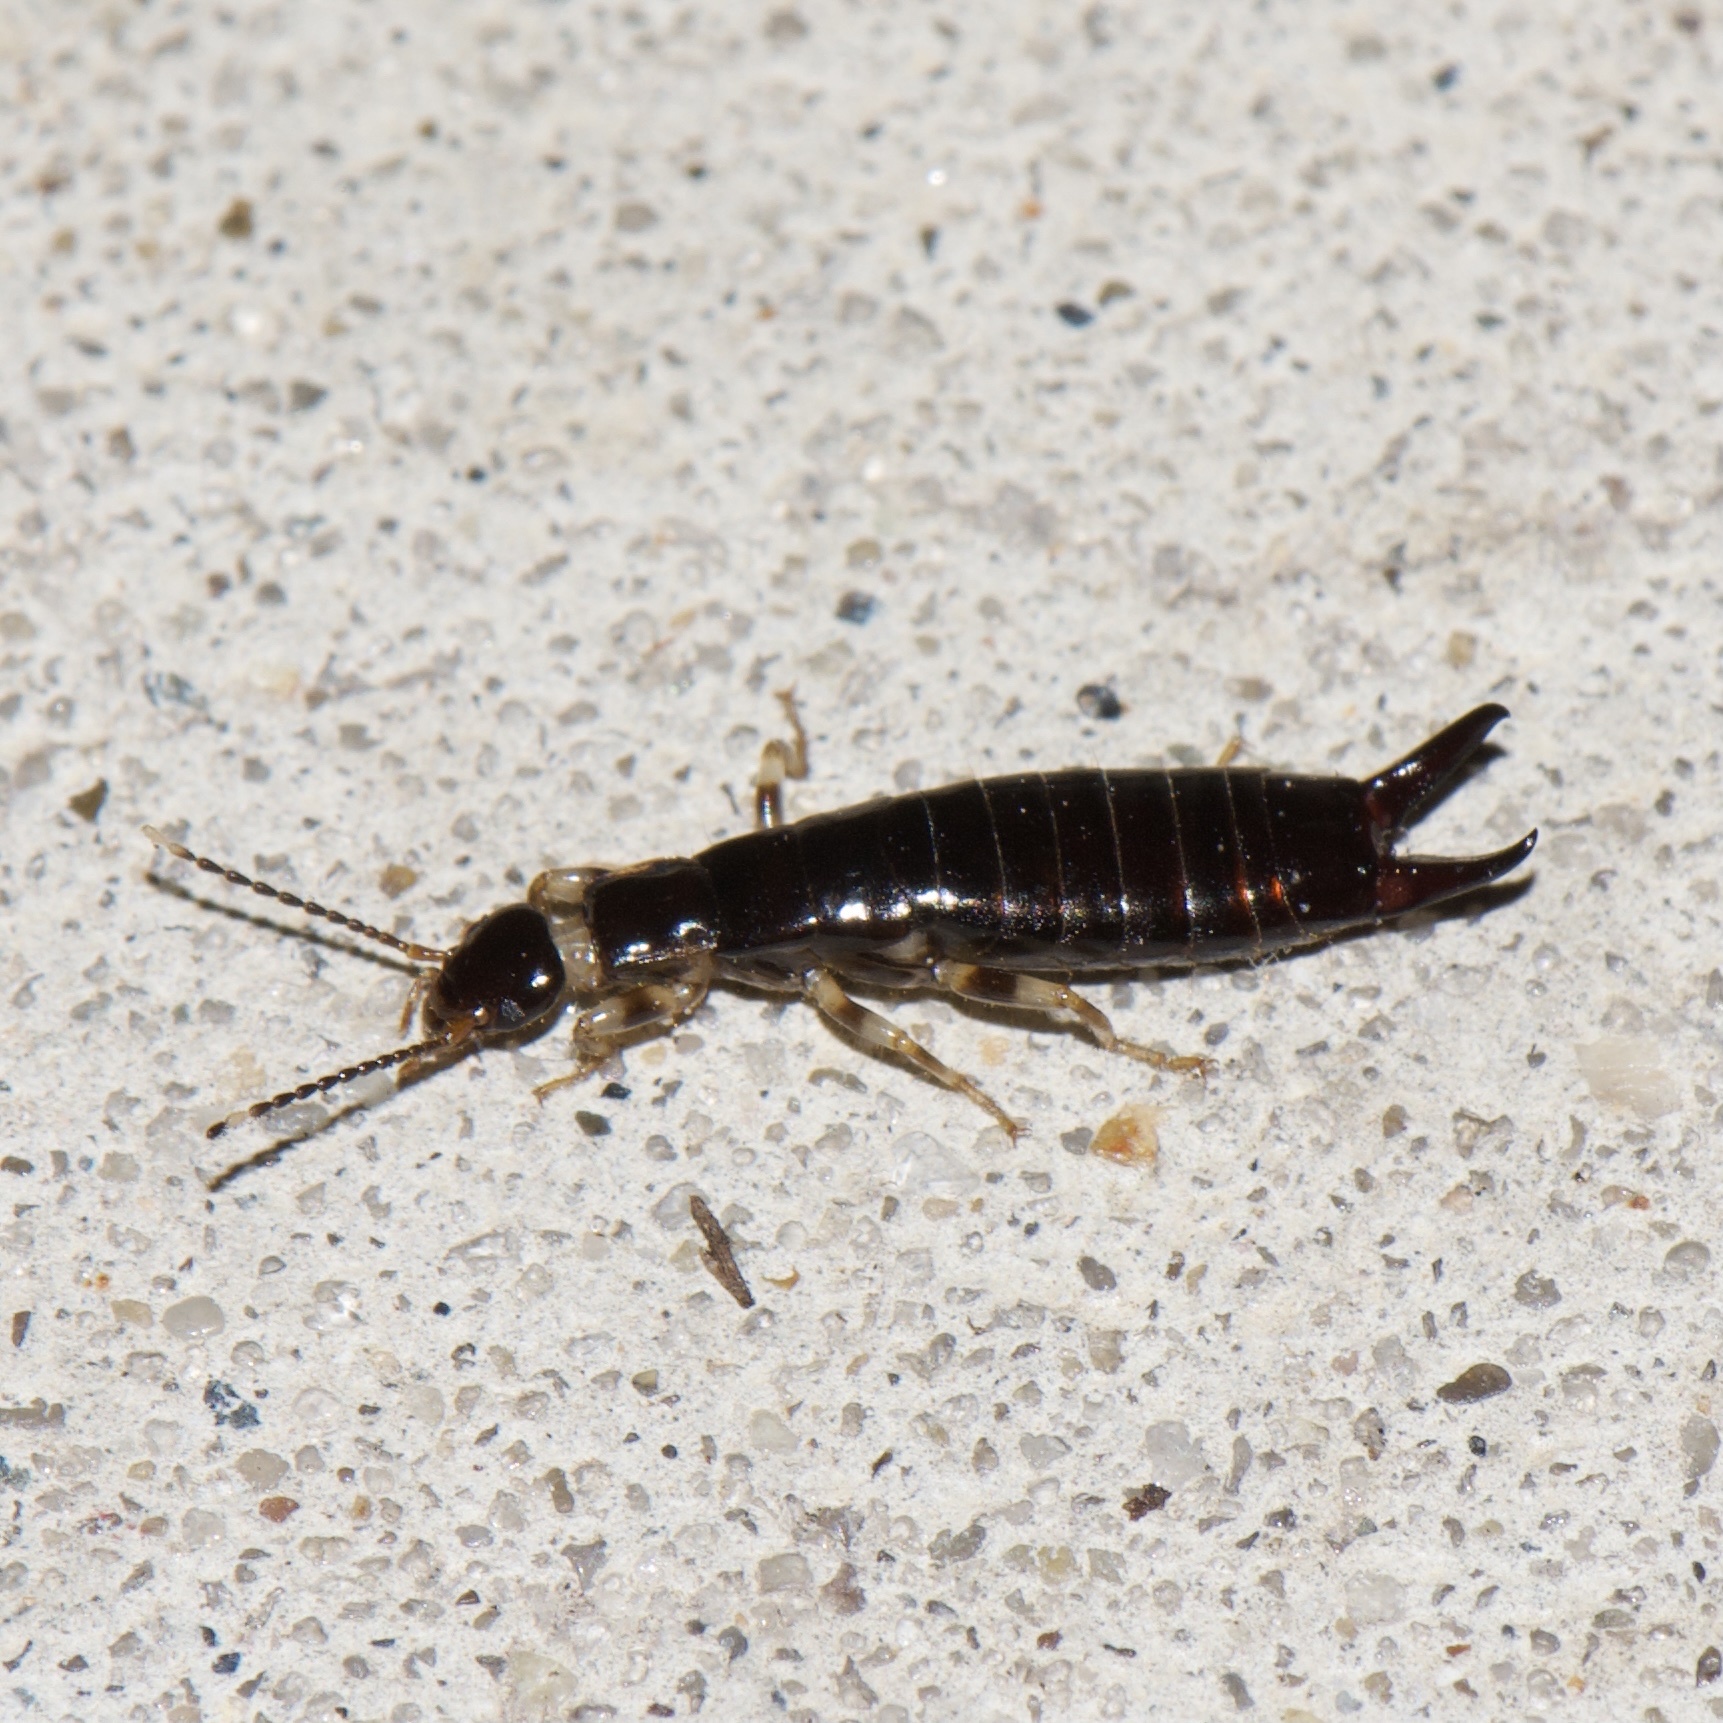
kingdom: Animalia
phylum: Arthropoda
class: Insecta
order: Dermaptera
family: Anisolabididae
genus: Euborellia
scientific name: Euborellia annulipes
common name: Ringlegged earwig
